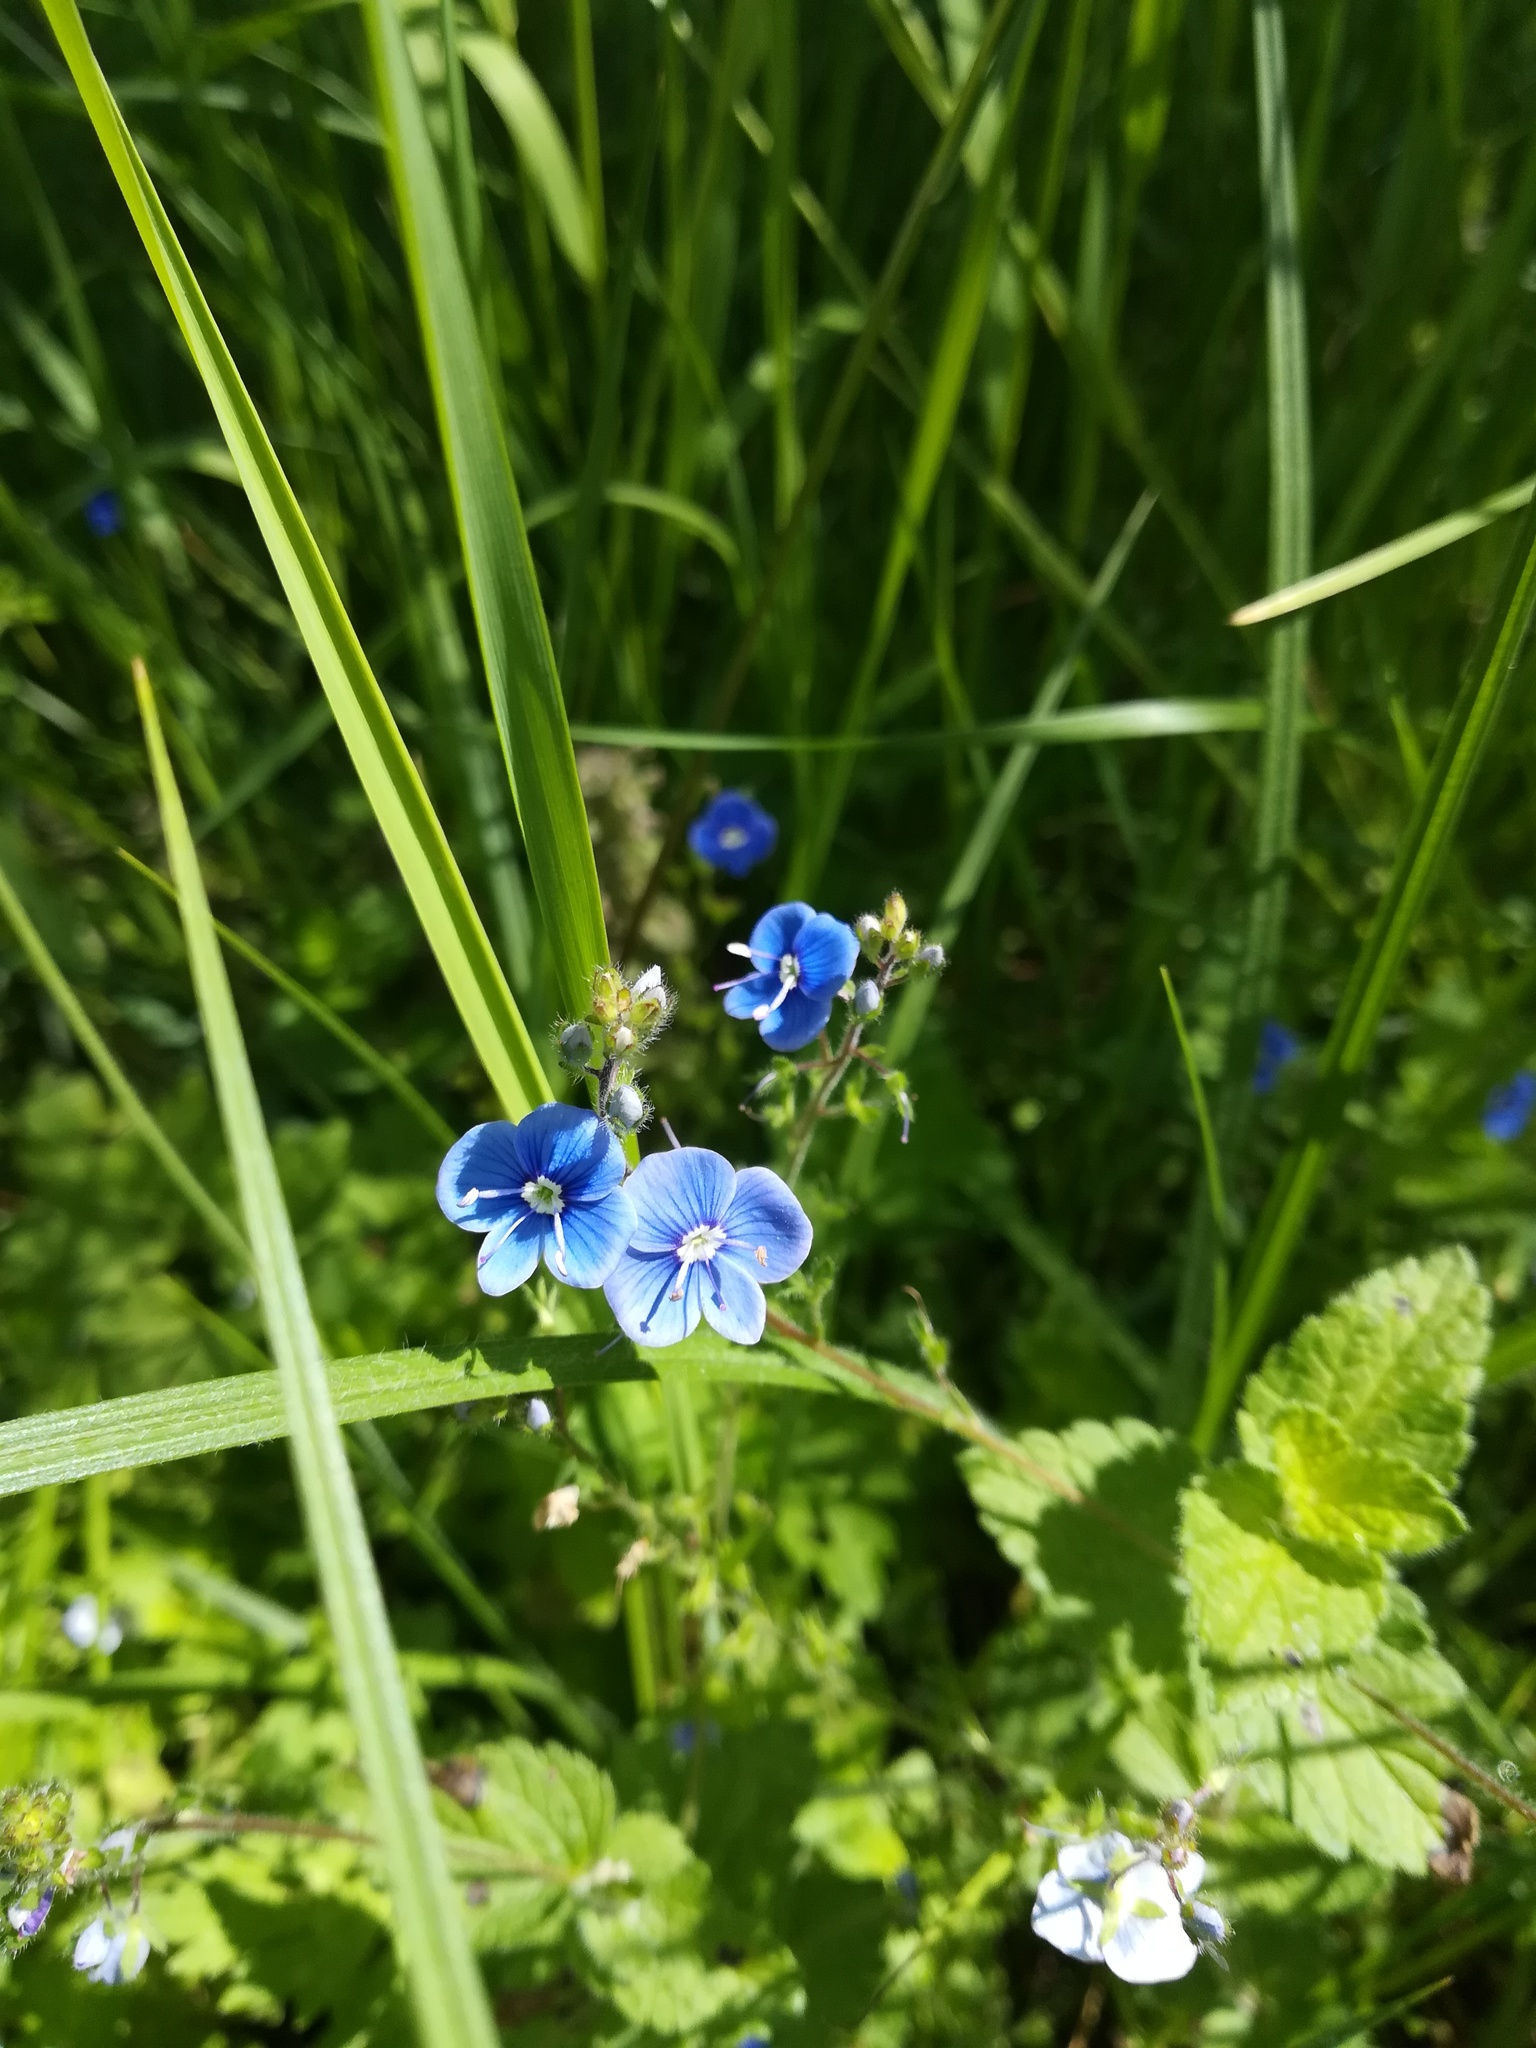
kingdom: Plantae
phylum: Tracheophyta
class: Magnoliopsida
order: Lamiales
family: Plantaginaceae
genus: Veronica
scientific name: Veronica chamaedrys
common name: Germander speedwell
